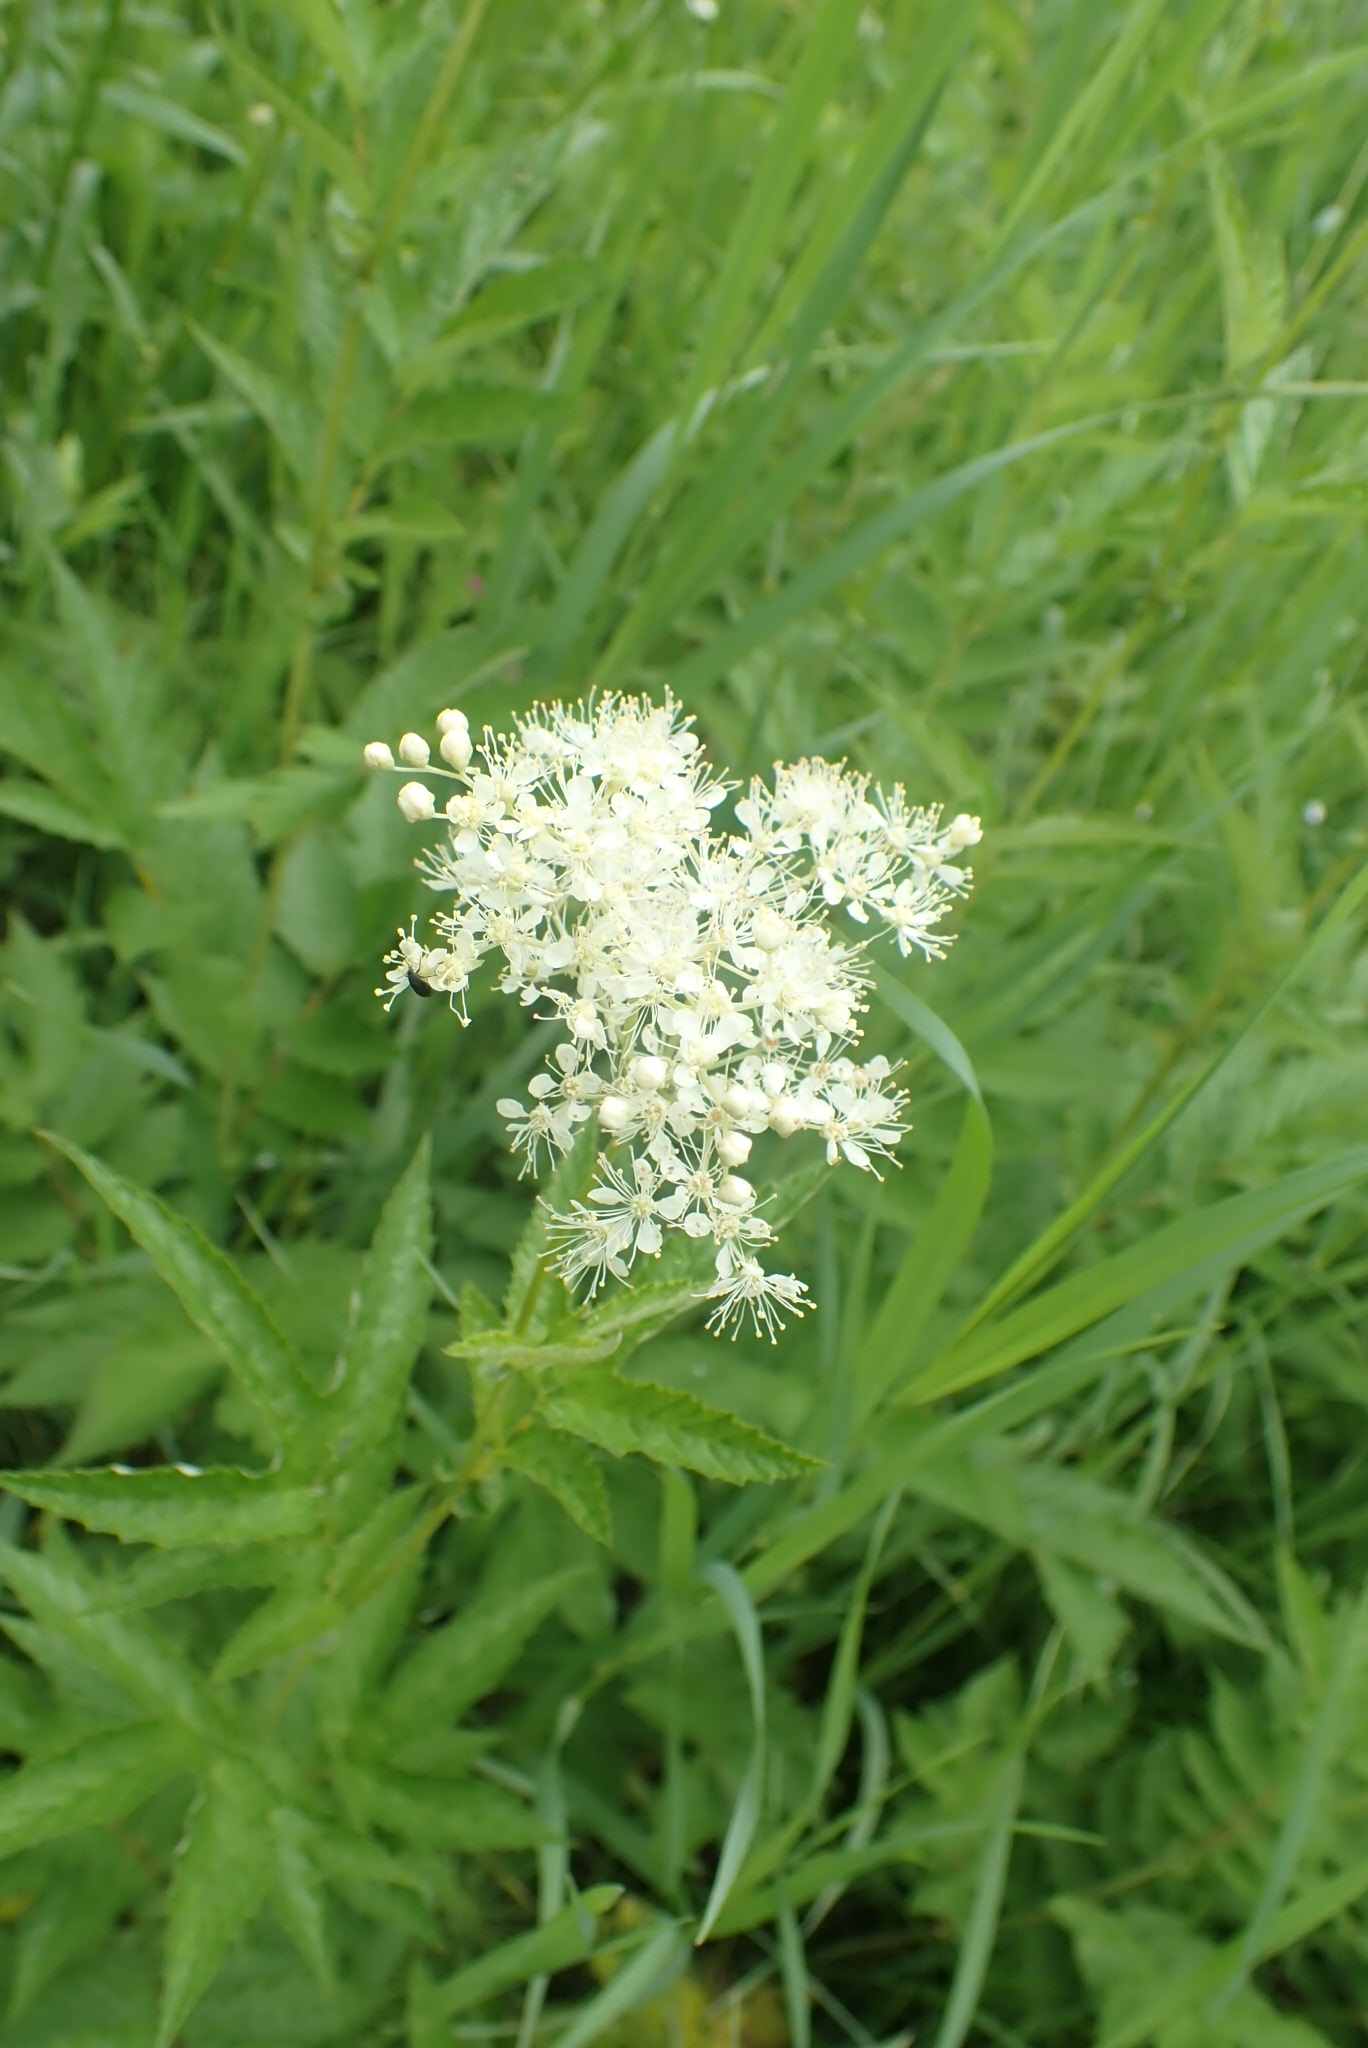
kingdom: Plantae
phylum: Tracheophyta
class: Magnoliopsida
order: Rosales
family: Rosaceae
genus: Filipendula
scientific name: Filipendula ulmaria
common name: Meadowsweet
